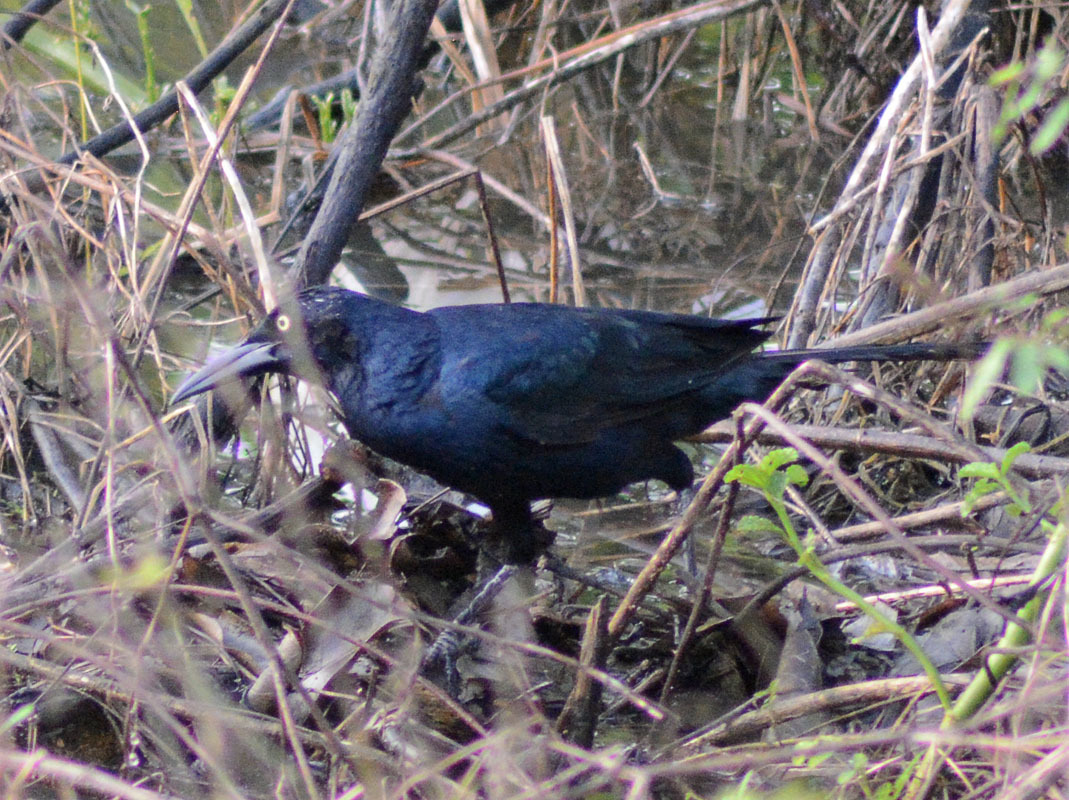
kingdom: Animalia
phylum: Chordata
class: Aves
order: Passeriformes
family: Icteridae
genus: Quiscalus
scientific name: Quiscalus mexicanus
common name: Great-tailed grackle
